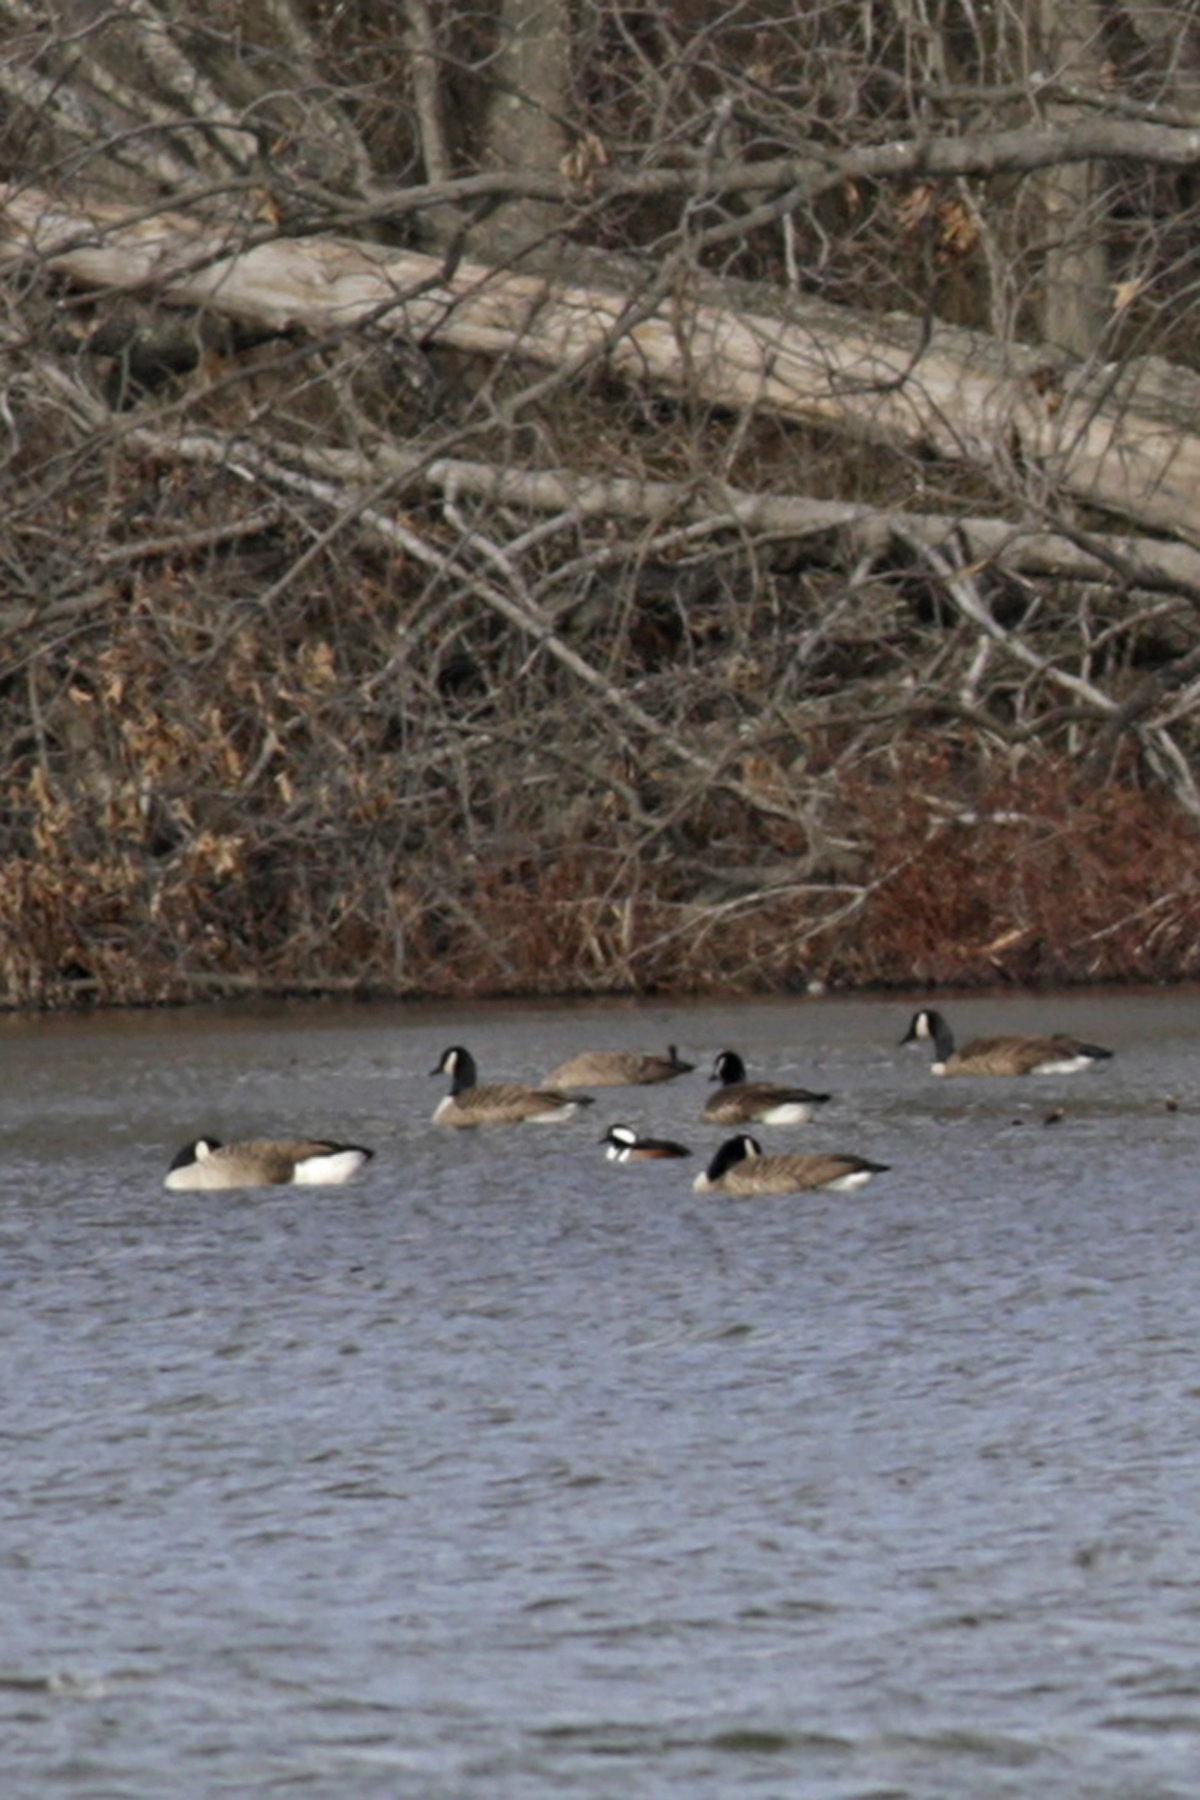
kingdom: Animalia
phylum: Chordata
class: Aves
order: Anseriformes
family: Anatidae
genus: Lophodytes
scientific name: Lophodytes cucullatus
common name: Hooded merganser
